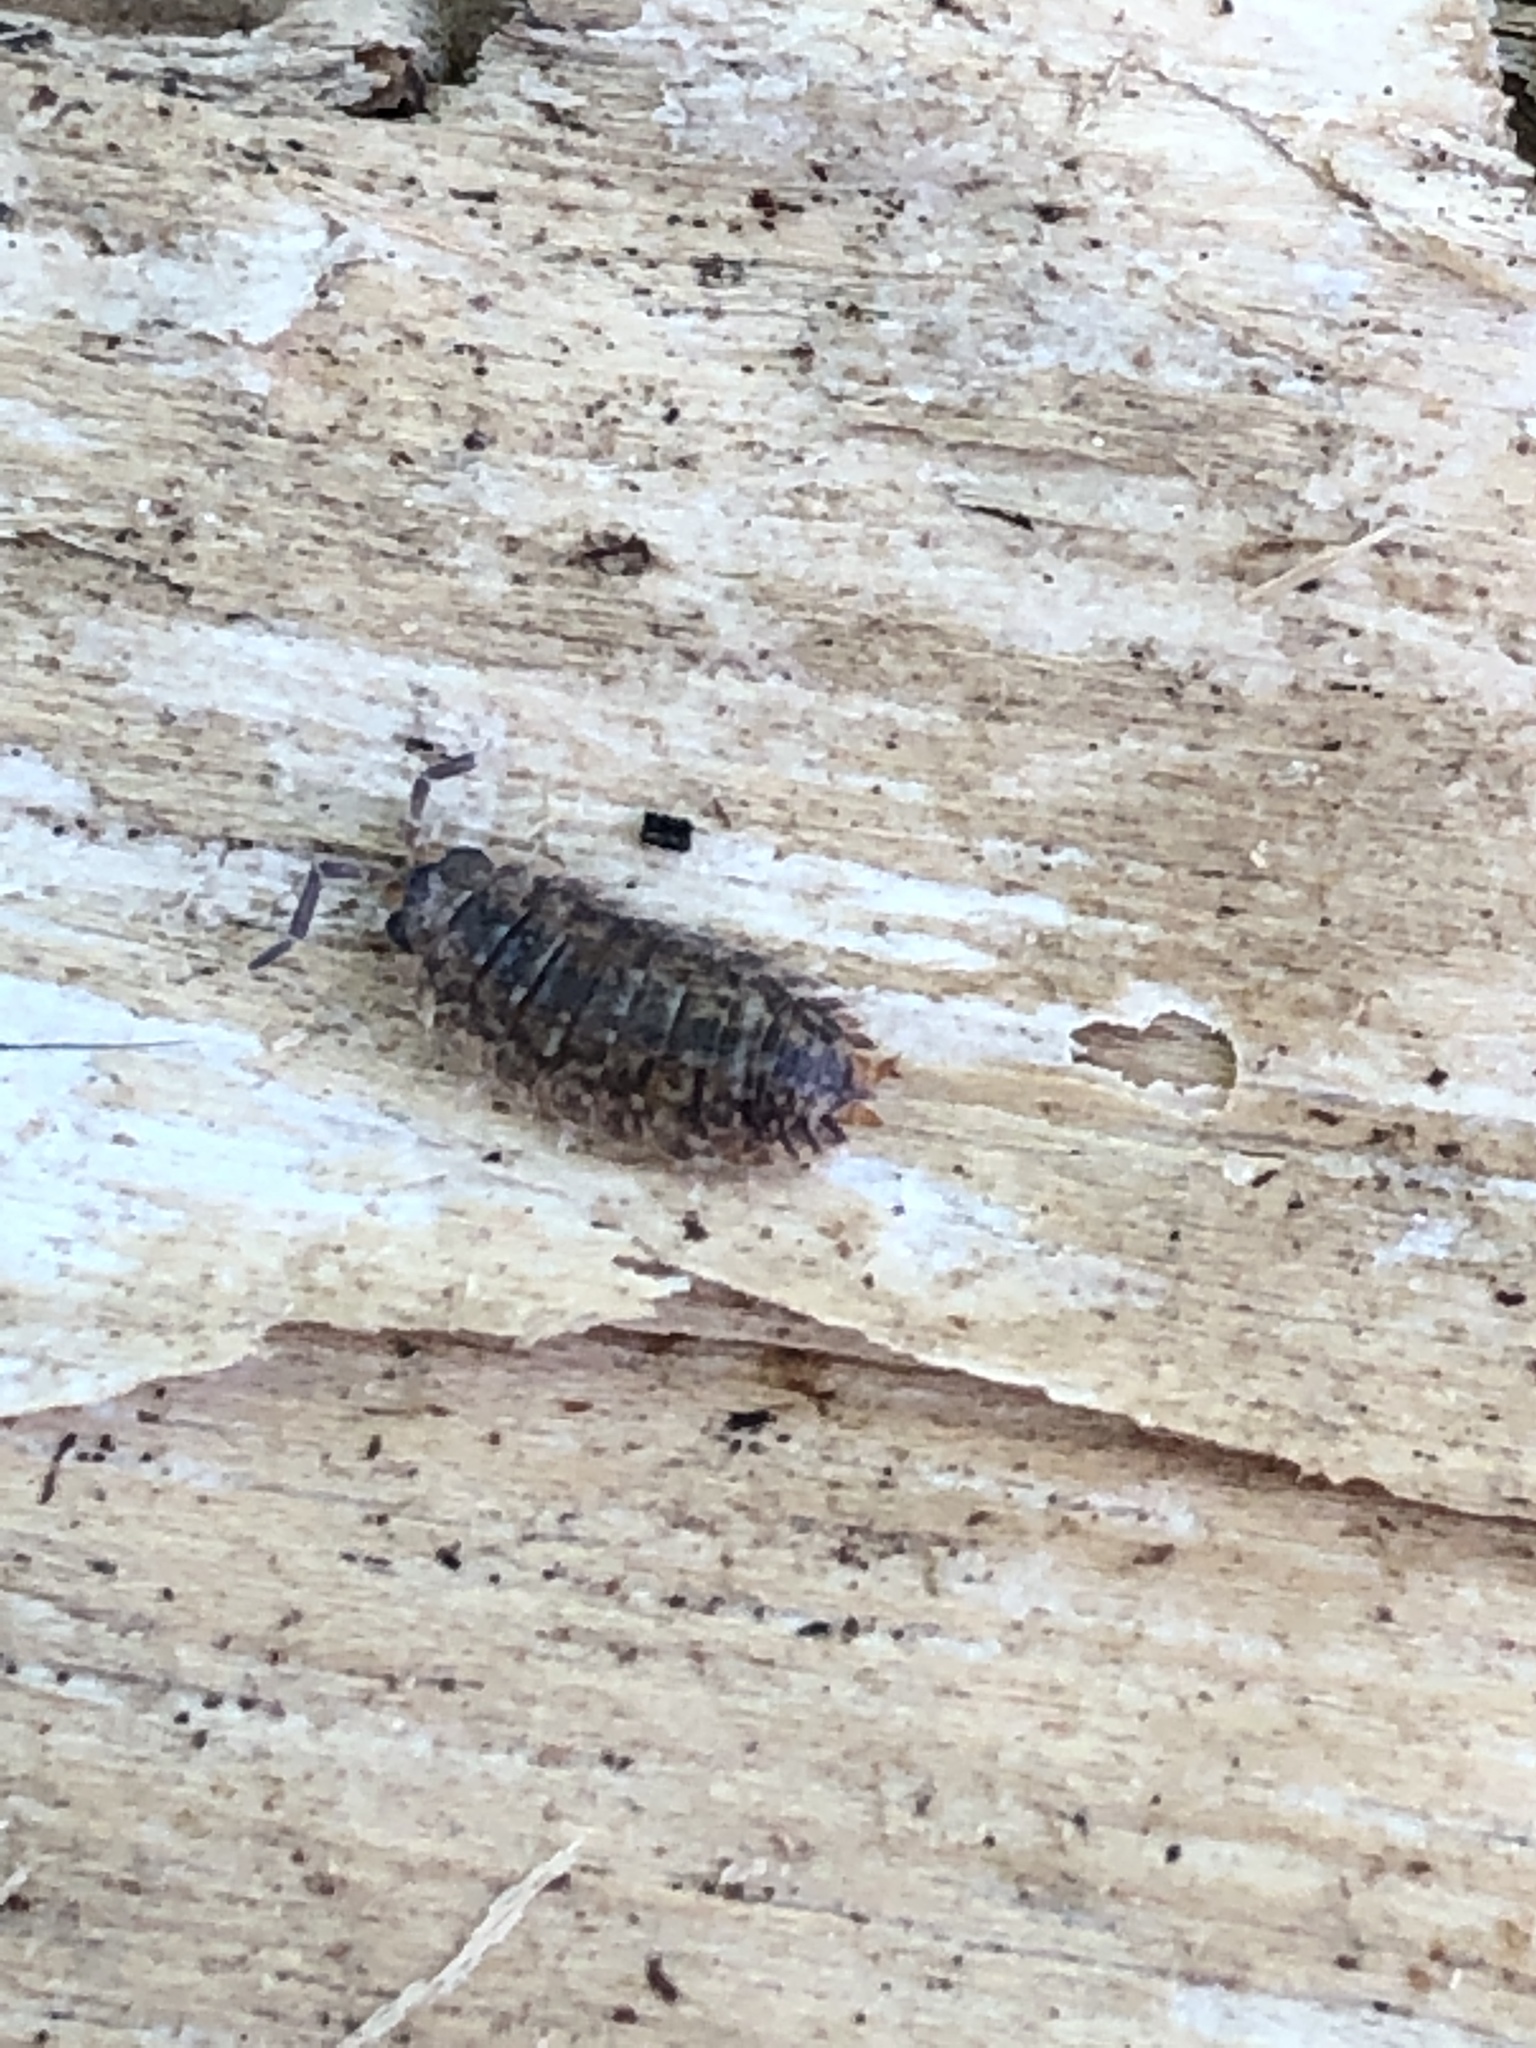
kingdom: Animalia
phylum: Arthropoda
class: Malacostraca
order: Isopoda
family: Porcellionidae
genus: Porcellio
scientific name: Porcellio scaber
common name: Common rough woodlouse
